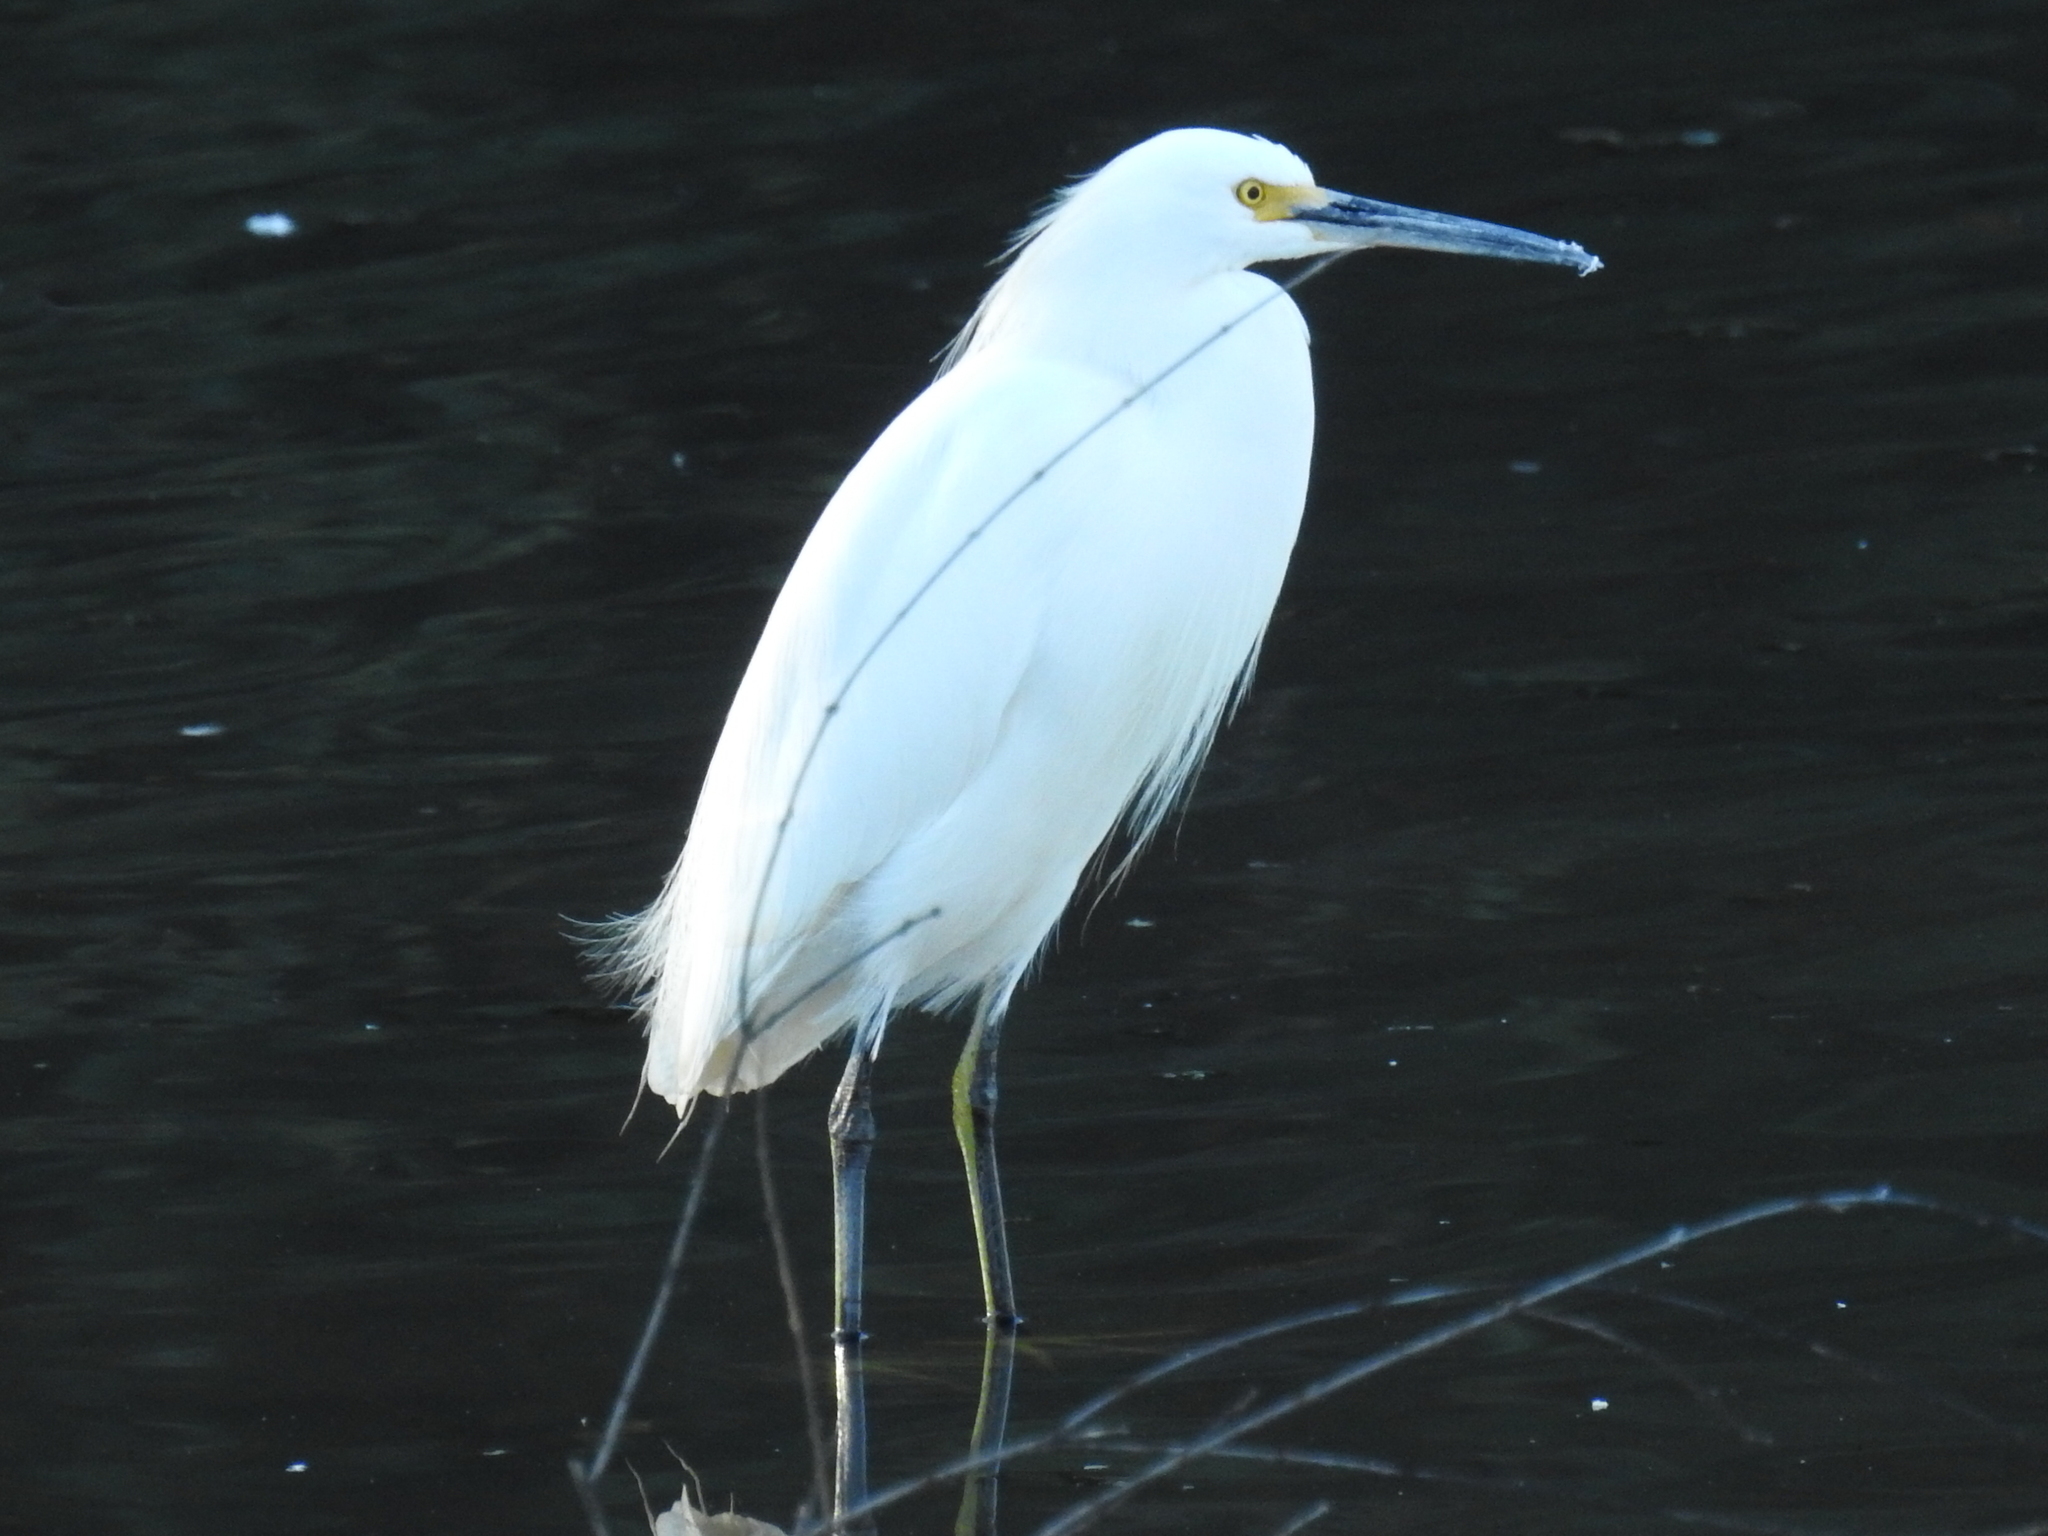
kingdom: Animalia
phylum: Chordata
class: Aves
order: Pelecaniformes
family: Ardeidae
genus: Egretta
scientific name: Egretta thula
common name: Snowy egret
